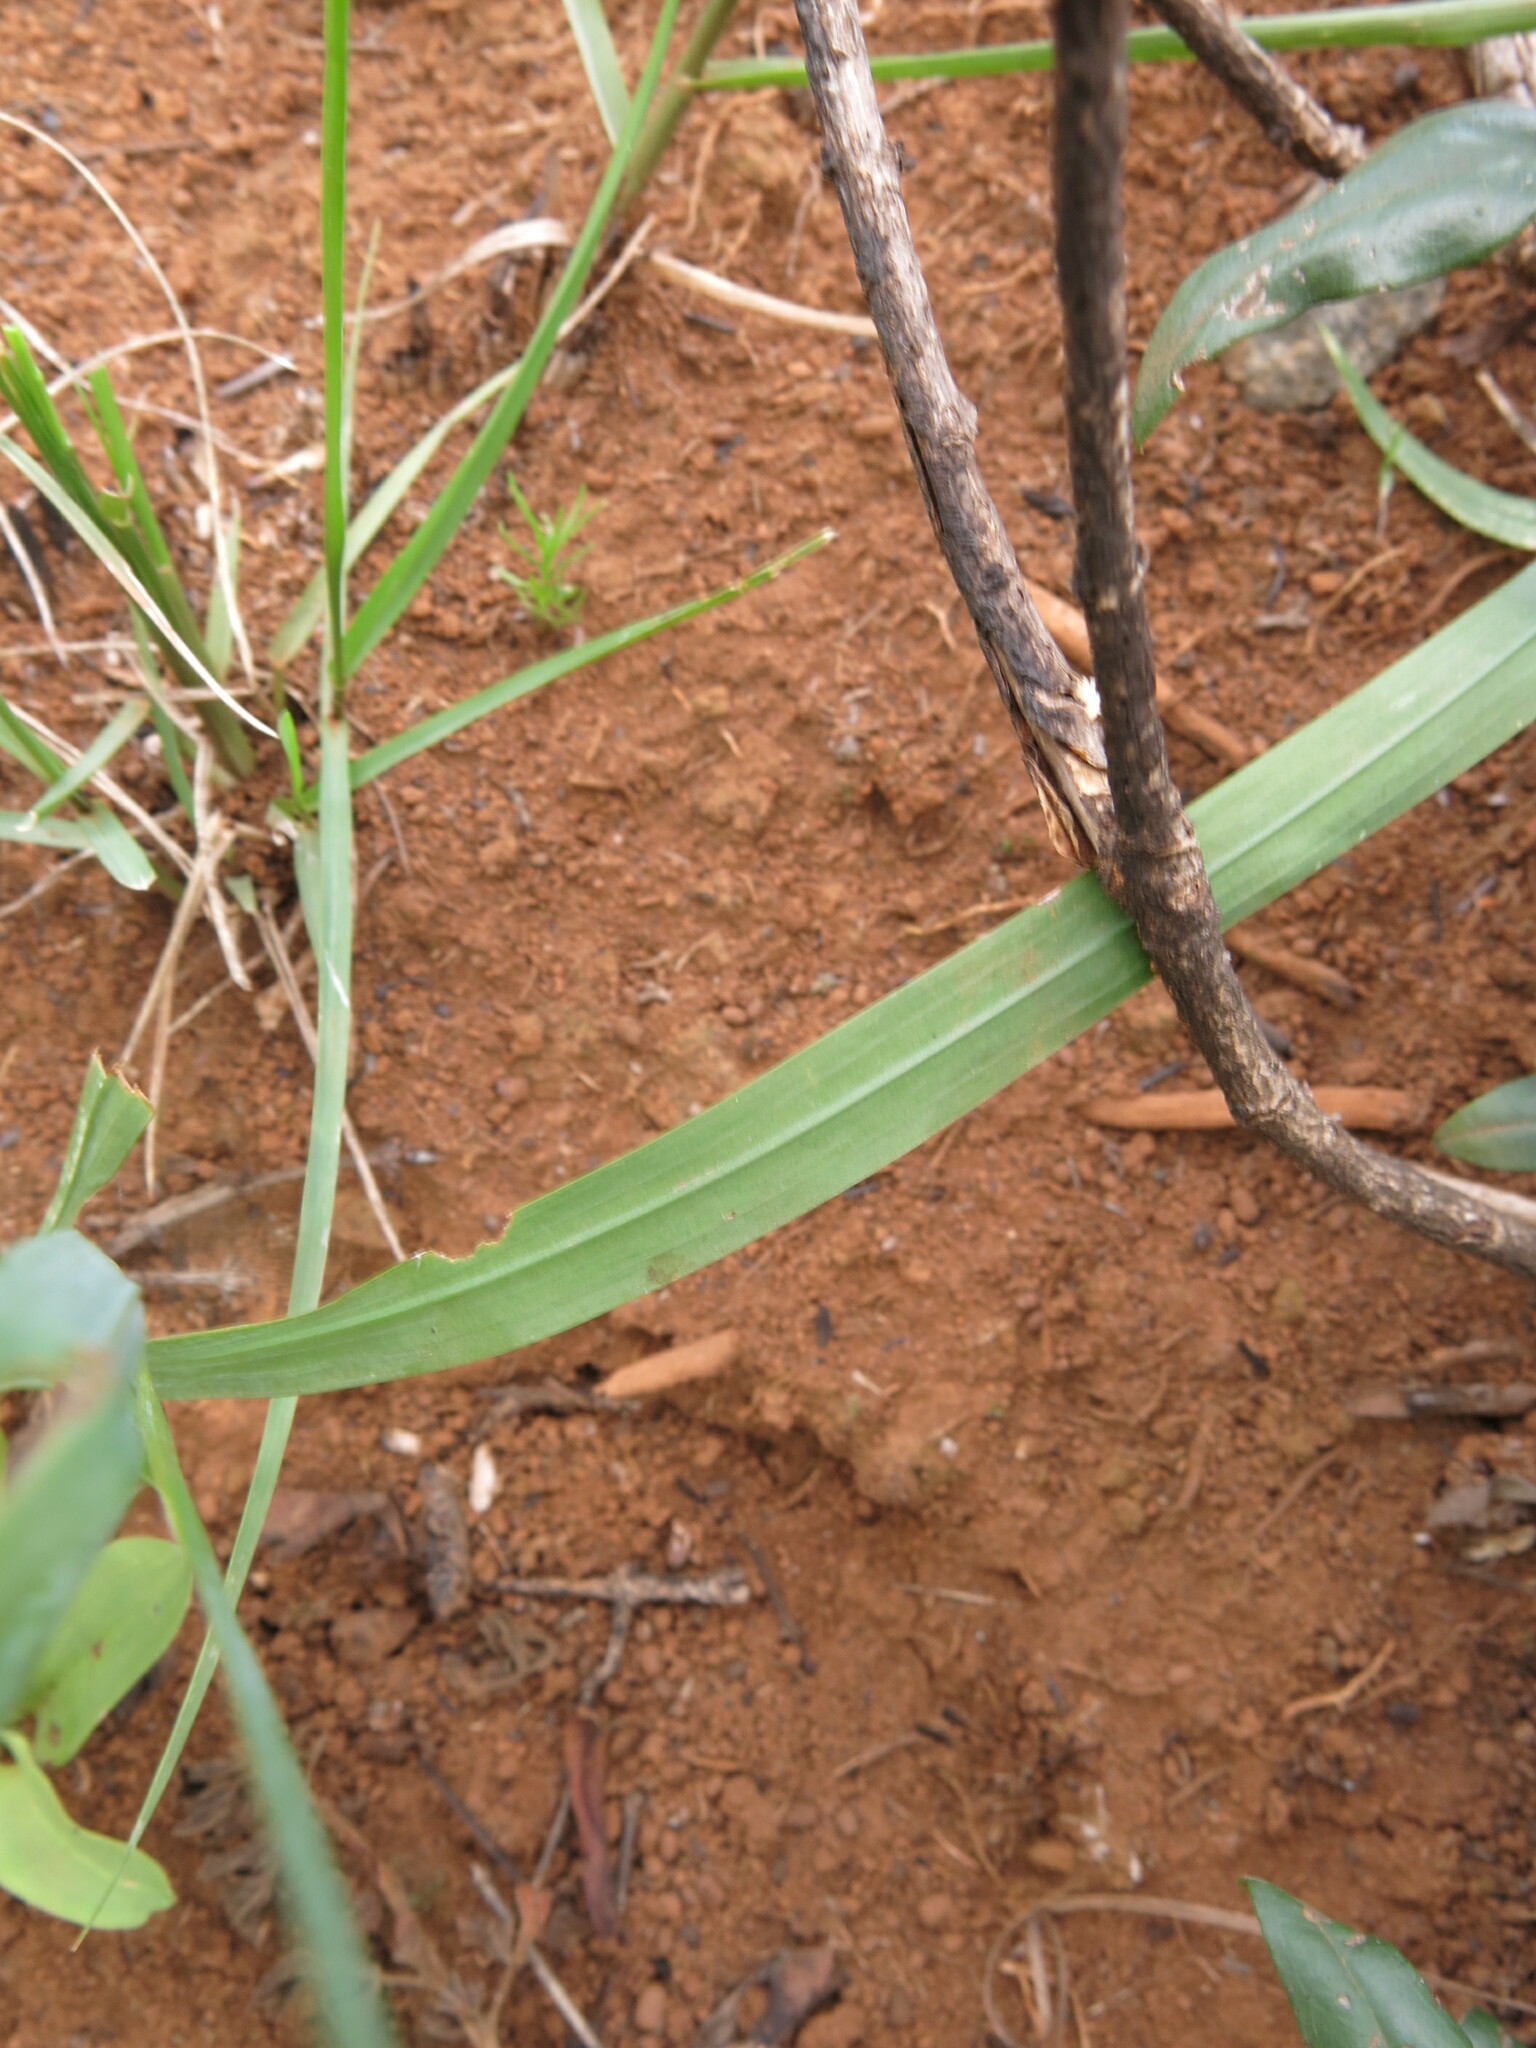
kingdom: Plantae
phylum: Tracheophyta
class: Liliopsida
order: Asparagales
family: Iridaceae
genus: Freesia
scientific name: Freesia laxa
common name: False freesia
